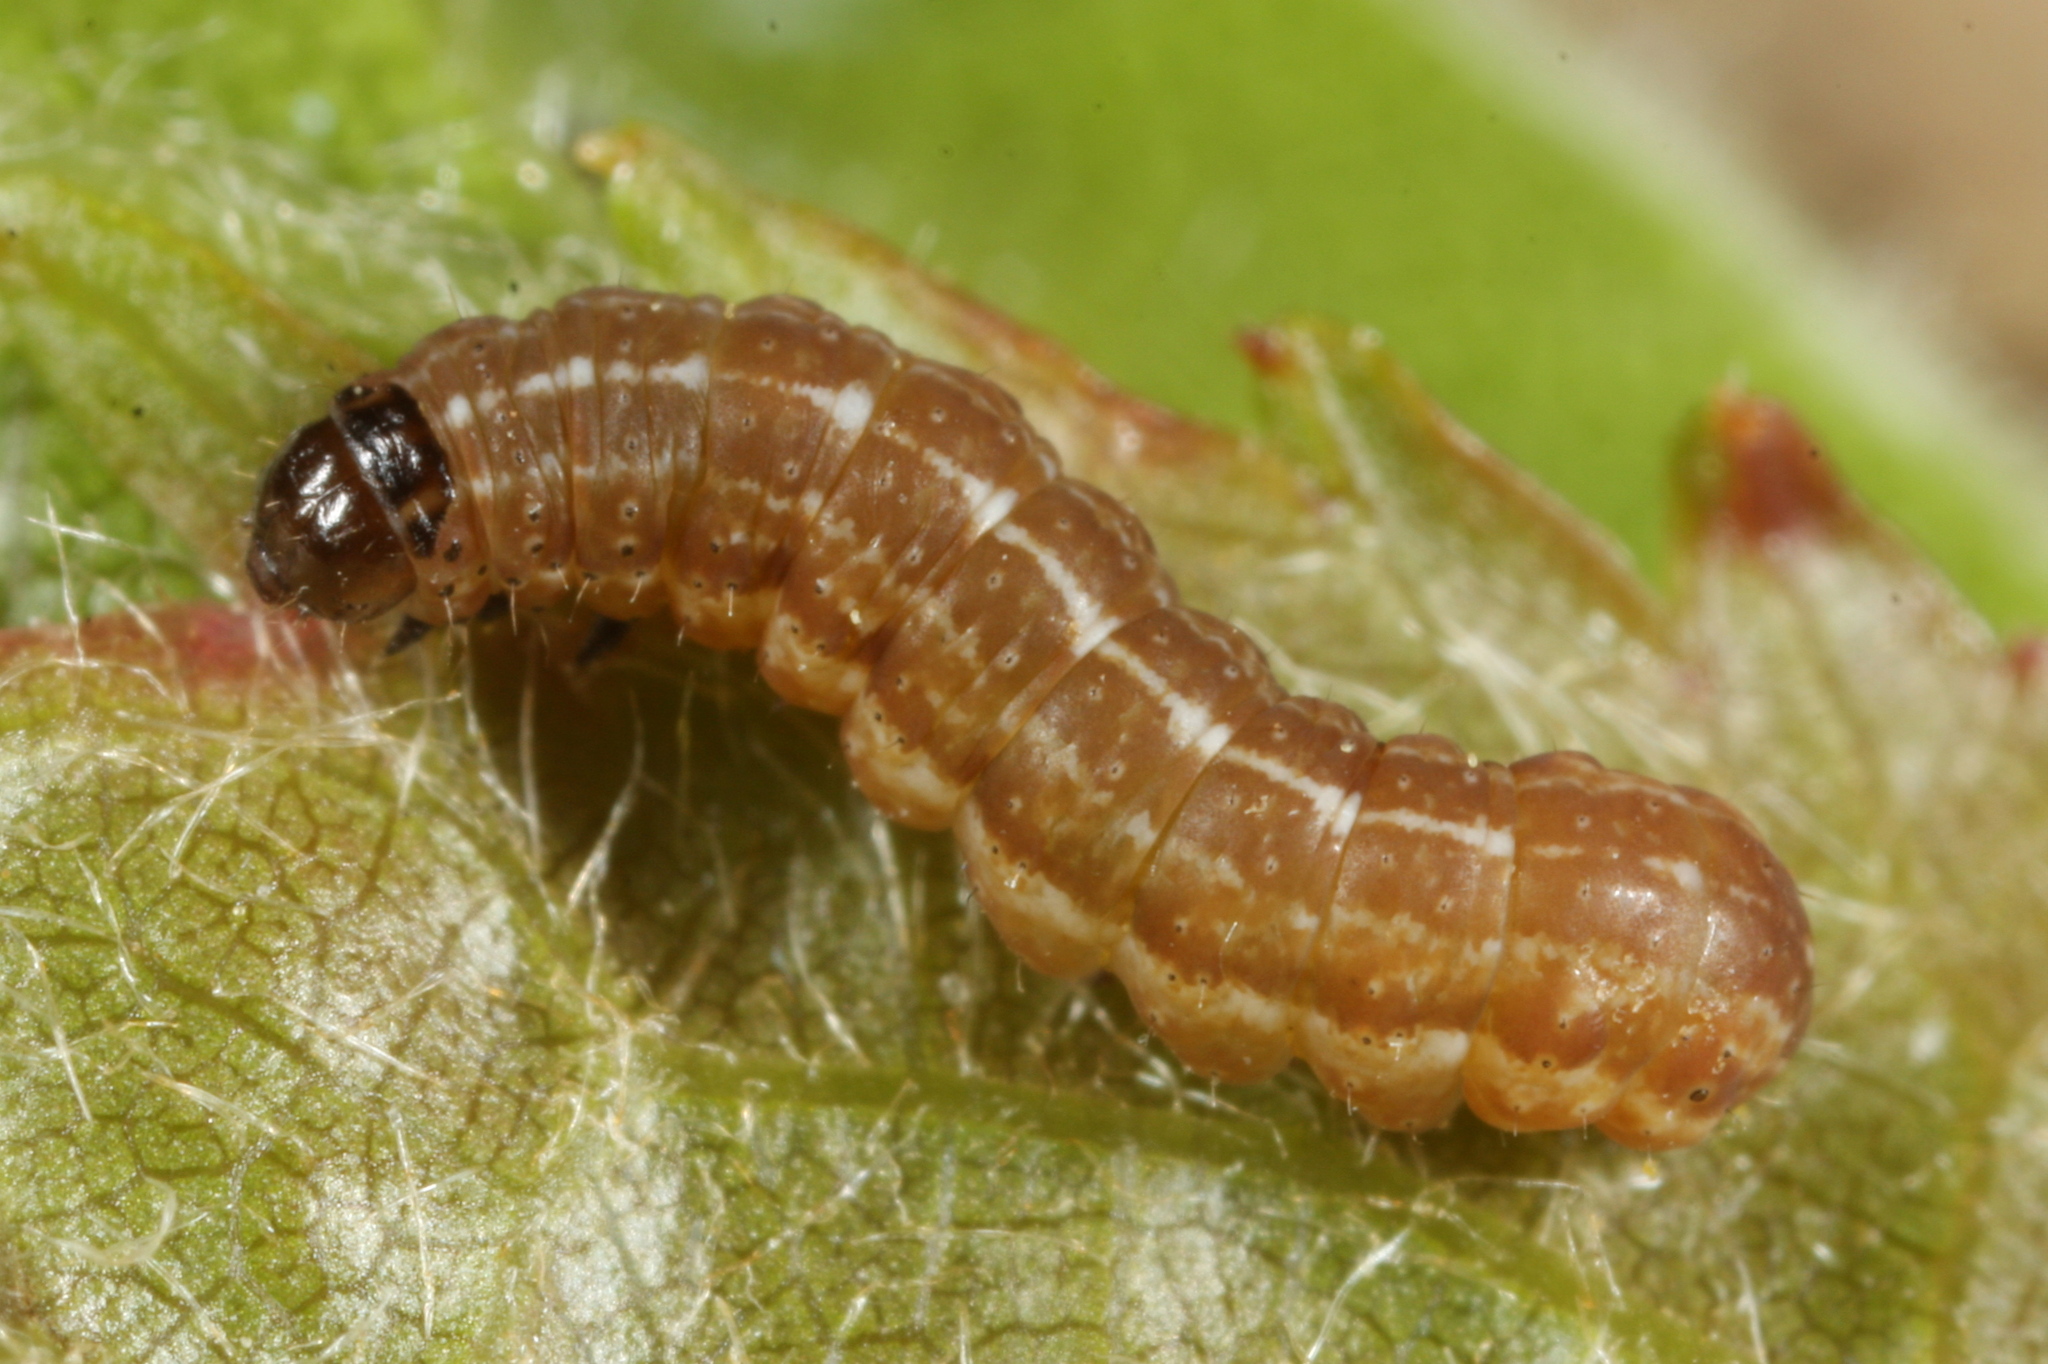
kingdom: Animalia
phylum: Arthropoda
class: Insecta
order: Lepidoptera
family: Noctuidae
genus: Agrochola
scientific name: Agrochola macilenta
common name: Yellow-line quaker
